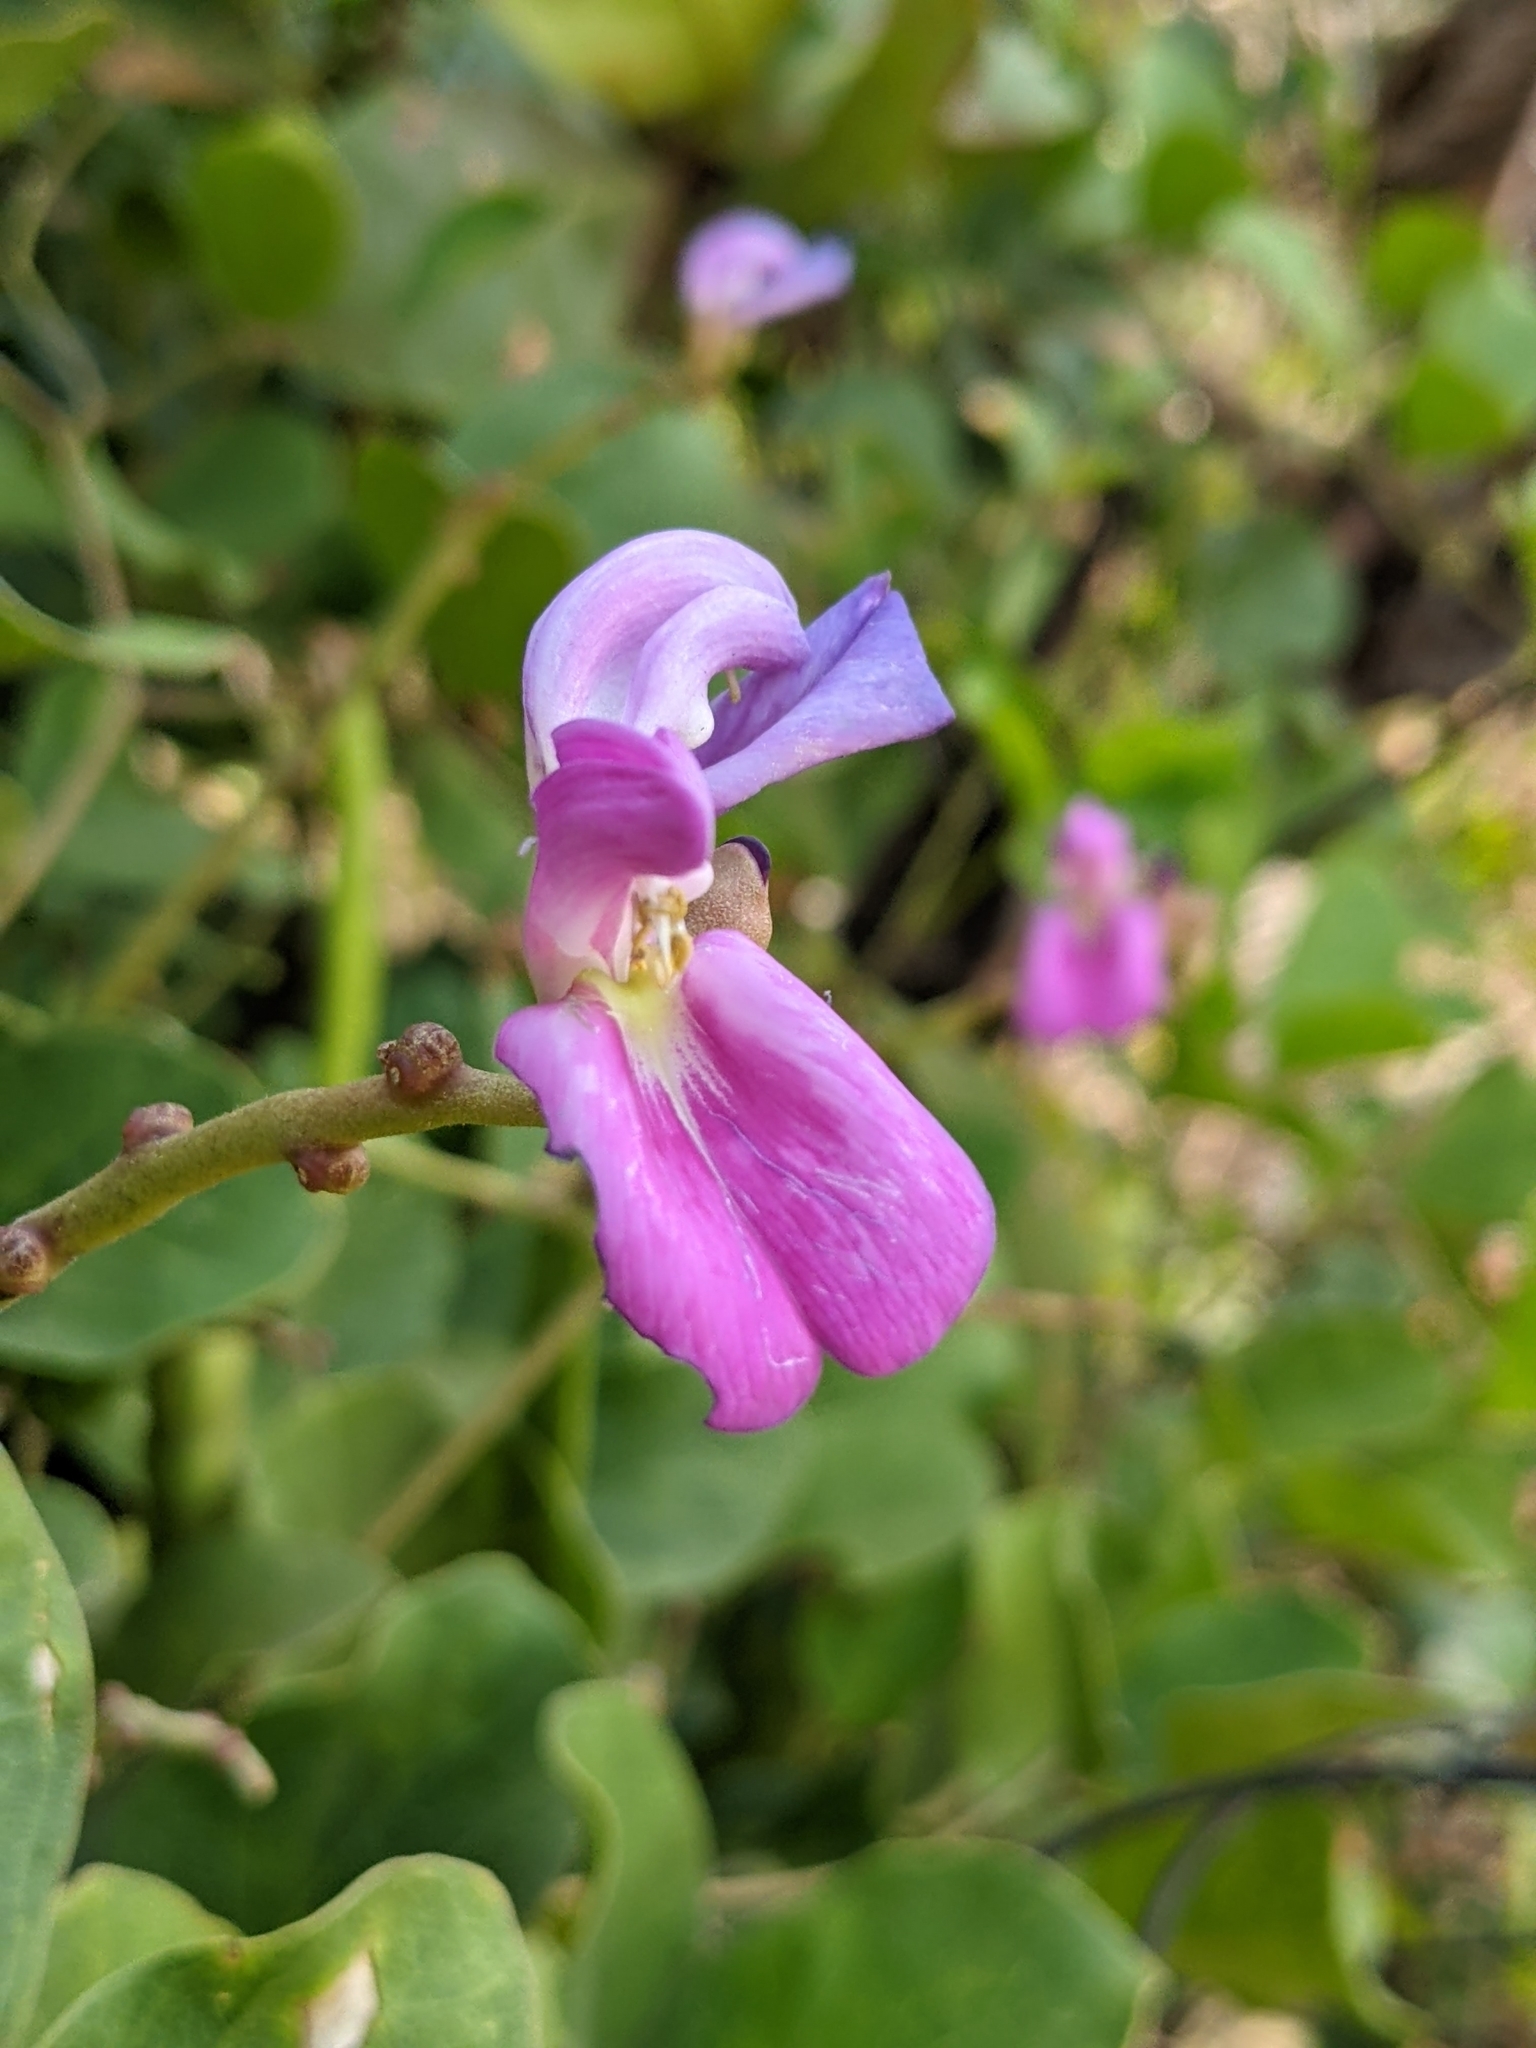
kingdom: Plantae
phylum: Tracheophyta
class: Magnoliopsida
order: Fabales
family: Fabaceae
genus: Canavalia
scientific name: Canavalia rosea
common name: Beach-bean
